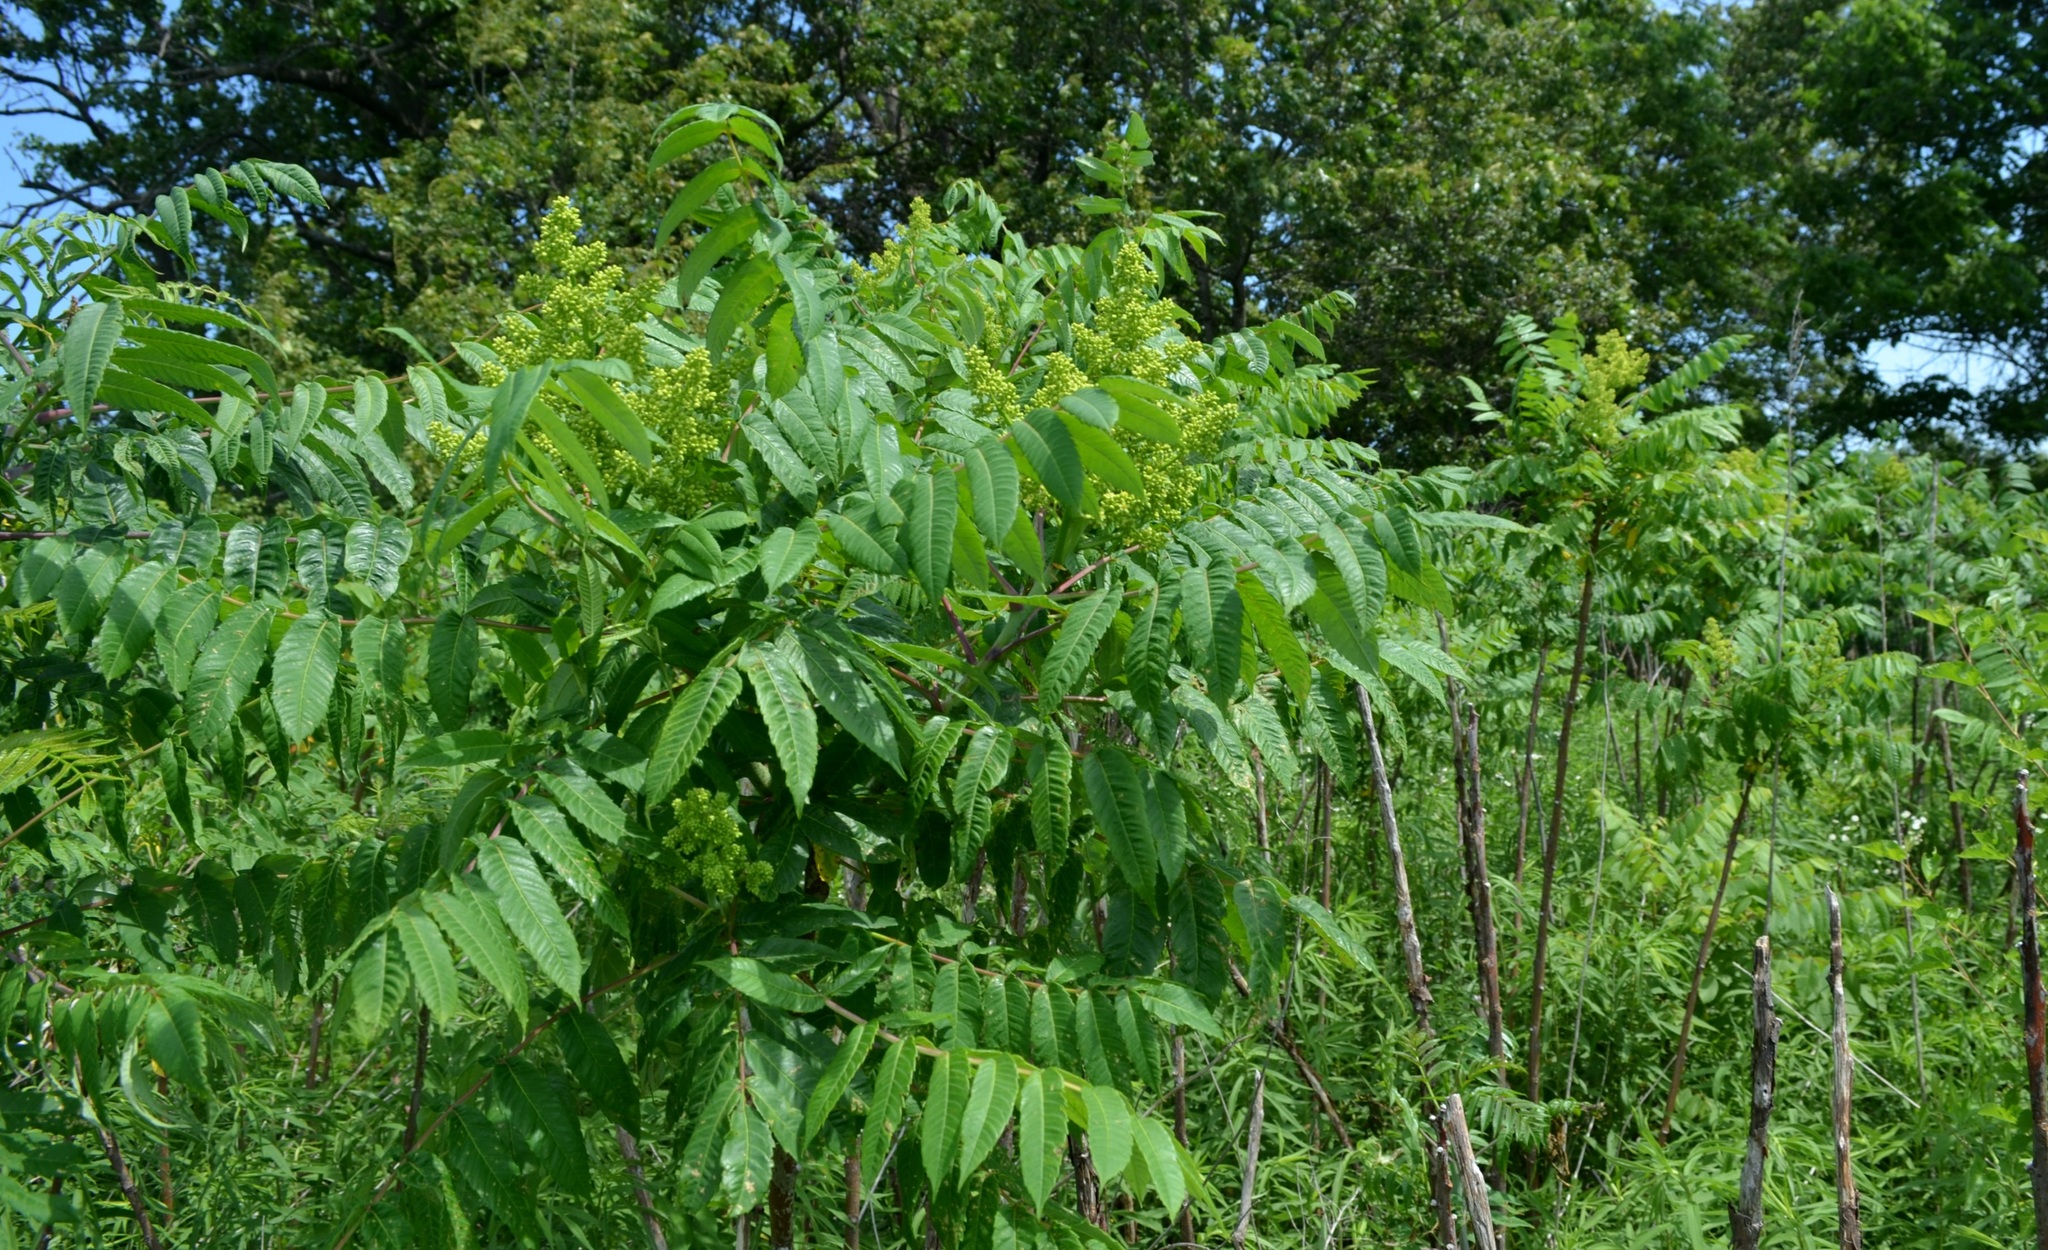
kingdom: Plantae
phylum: Tracheophyta
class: Magnoliopsida
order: Sapindales
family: Anacardiaceae
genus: Rhus
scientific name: Rhus glabra
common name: Scarlet sumac
